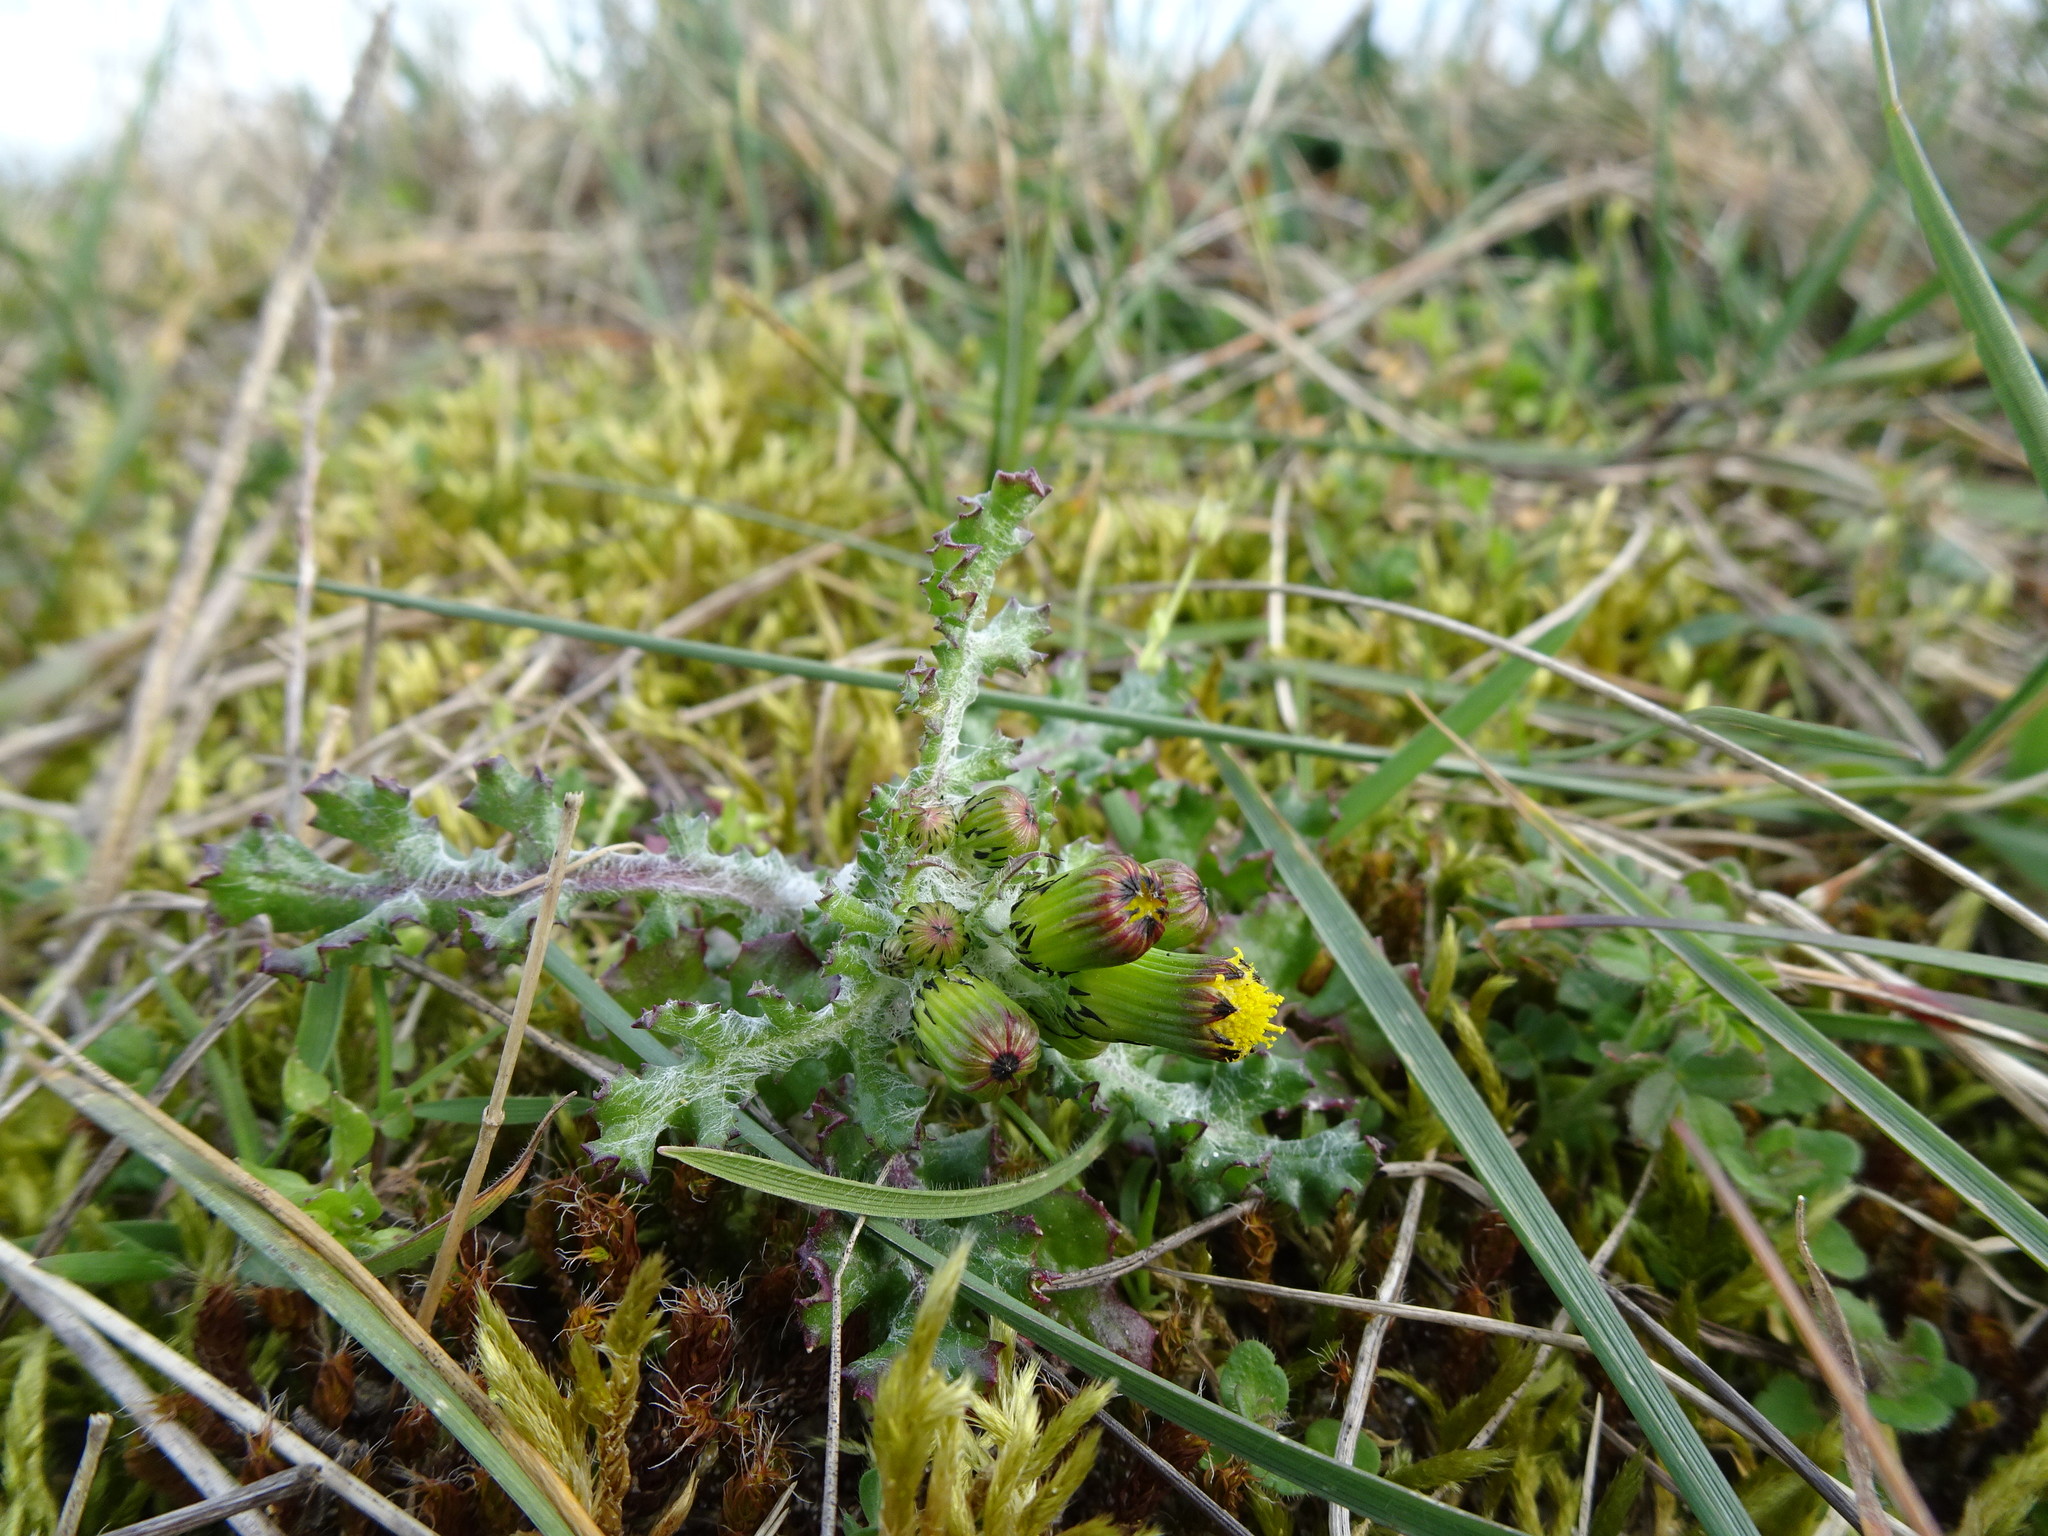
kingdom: Plantae
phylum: Tracheophyta
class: Magnoliopsida
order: Asterales
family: Asteraceae
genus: Senecio
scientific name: Senecio vulgaris
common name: Old-man-in-the-spring
